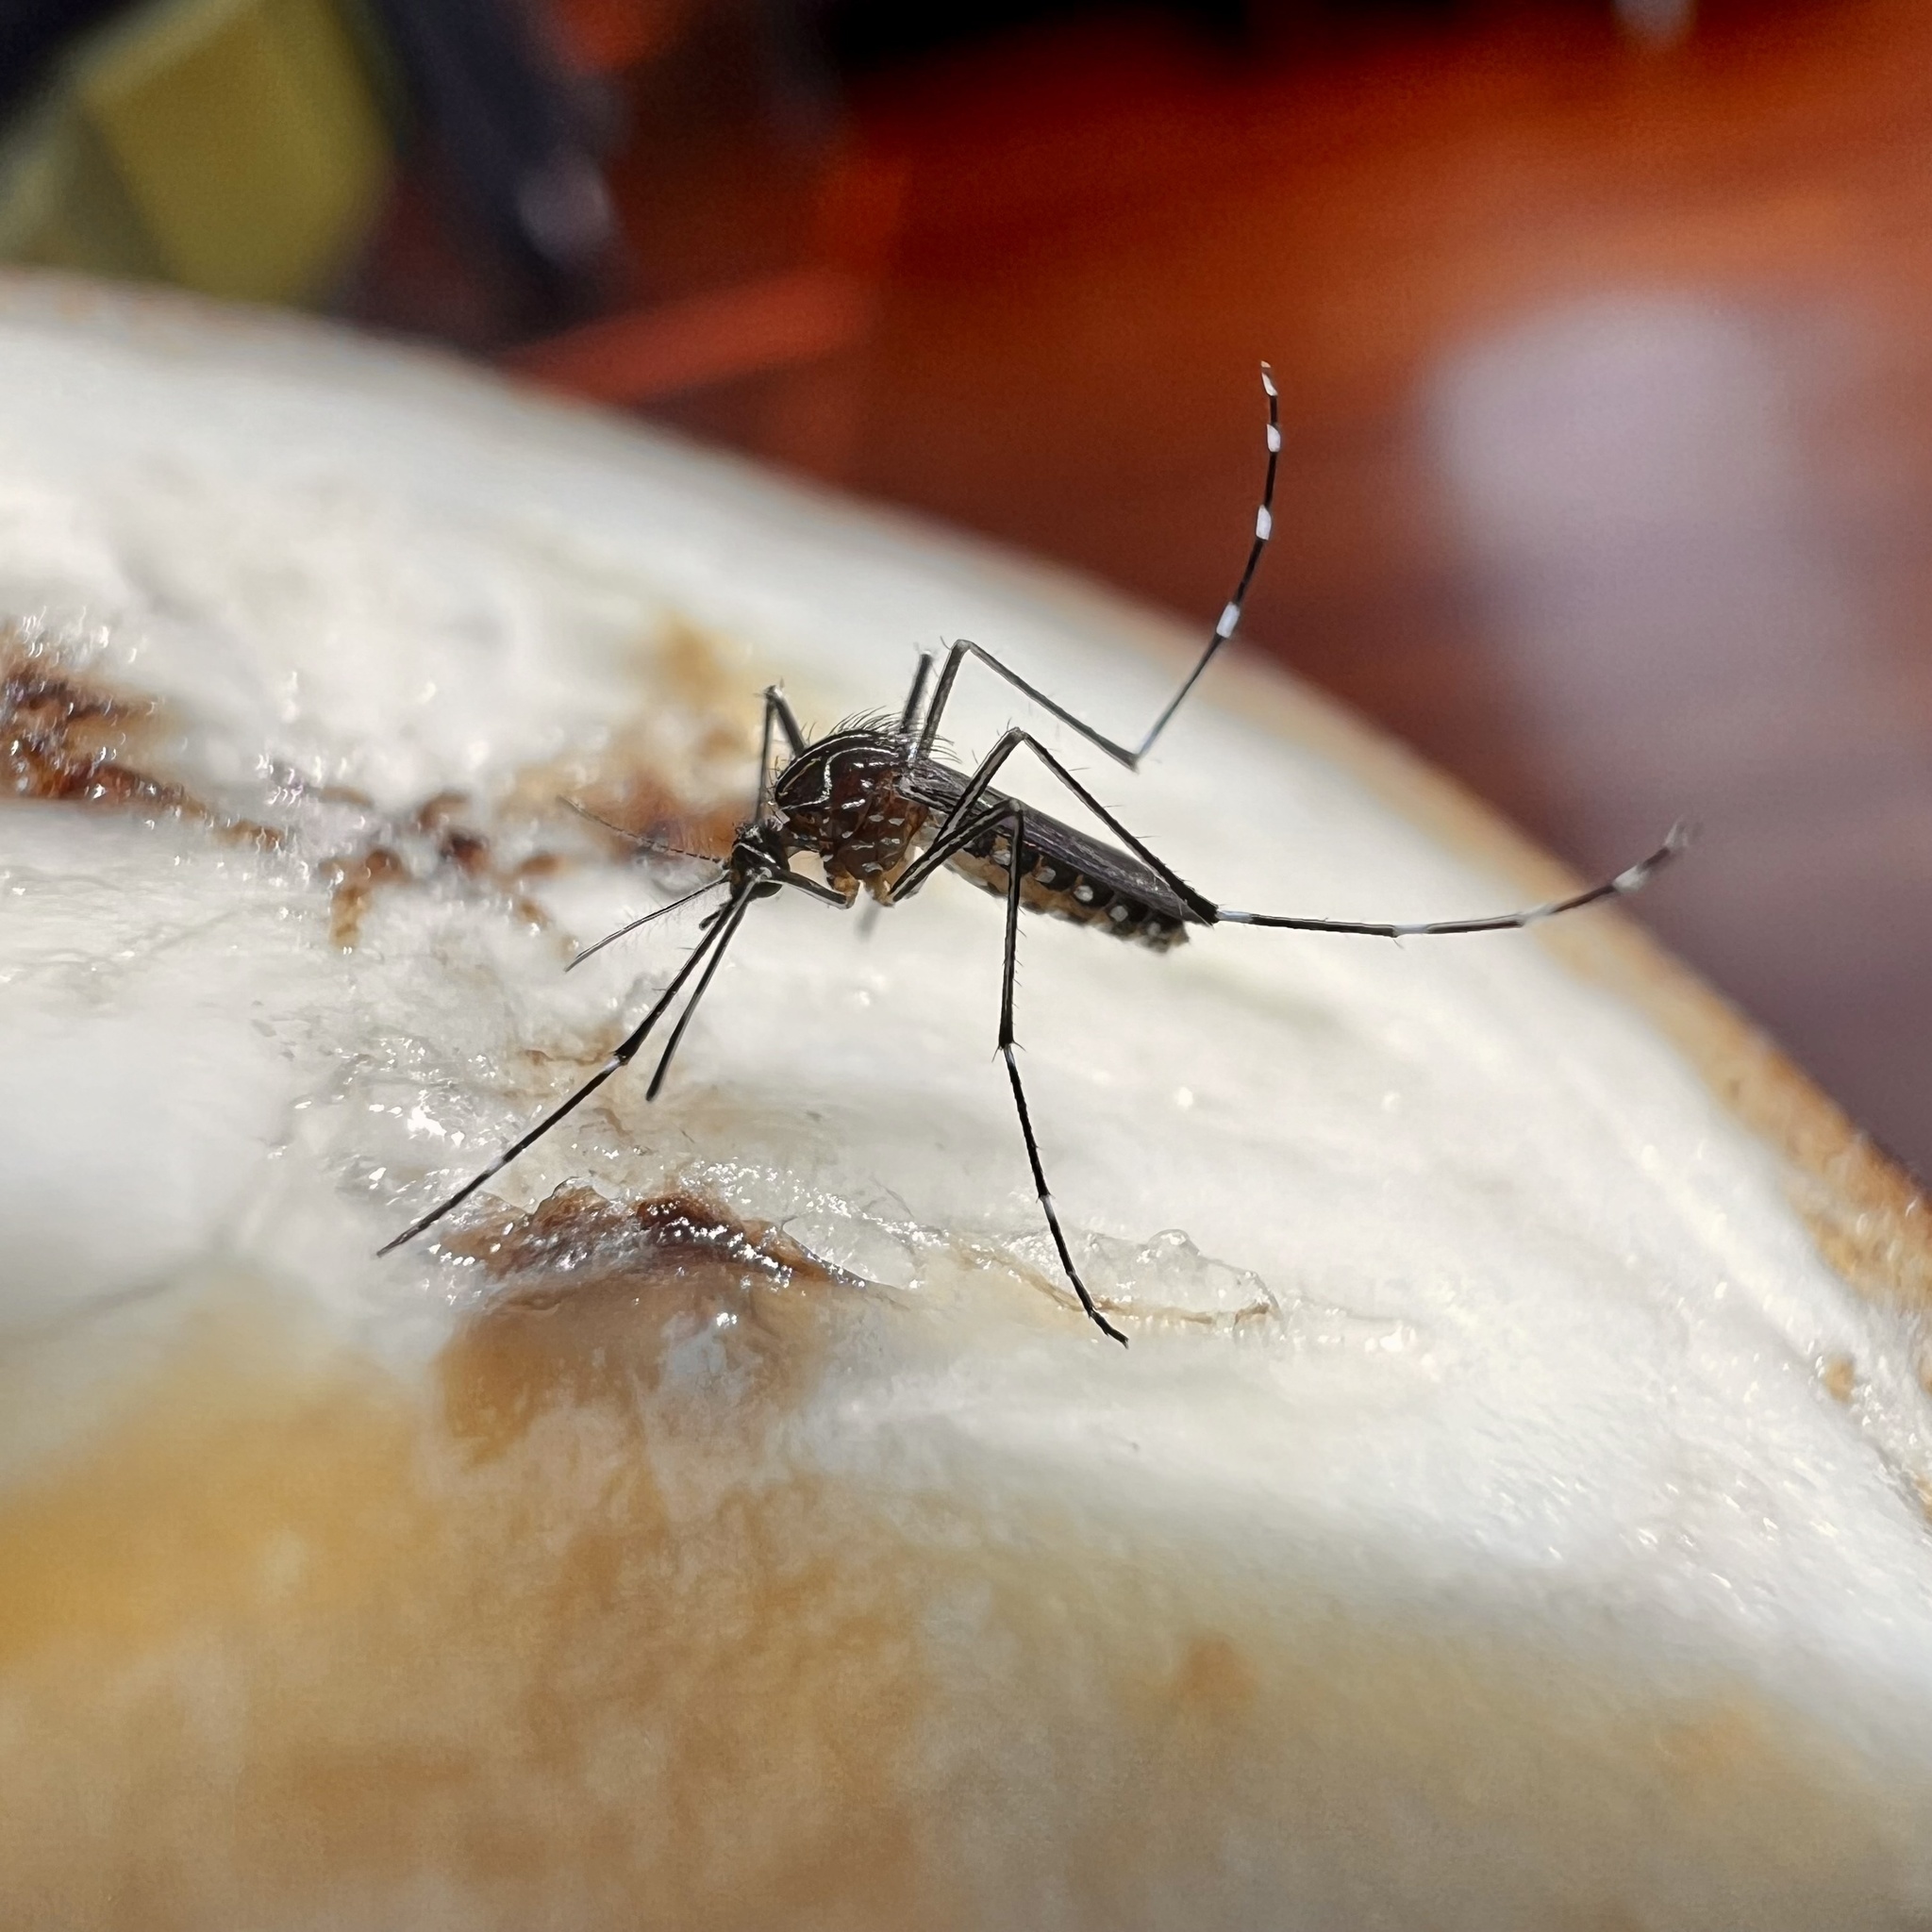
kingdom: Animalia
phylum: Arthropoda
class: Insecta
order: Diptera
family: Culicidae
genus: Aedes
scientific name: Aedes notoscriptus
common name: Australian backyard mosquito
